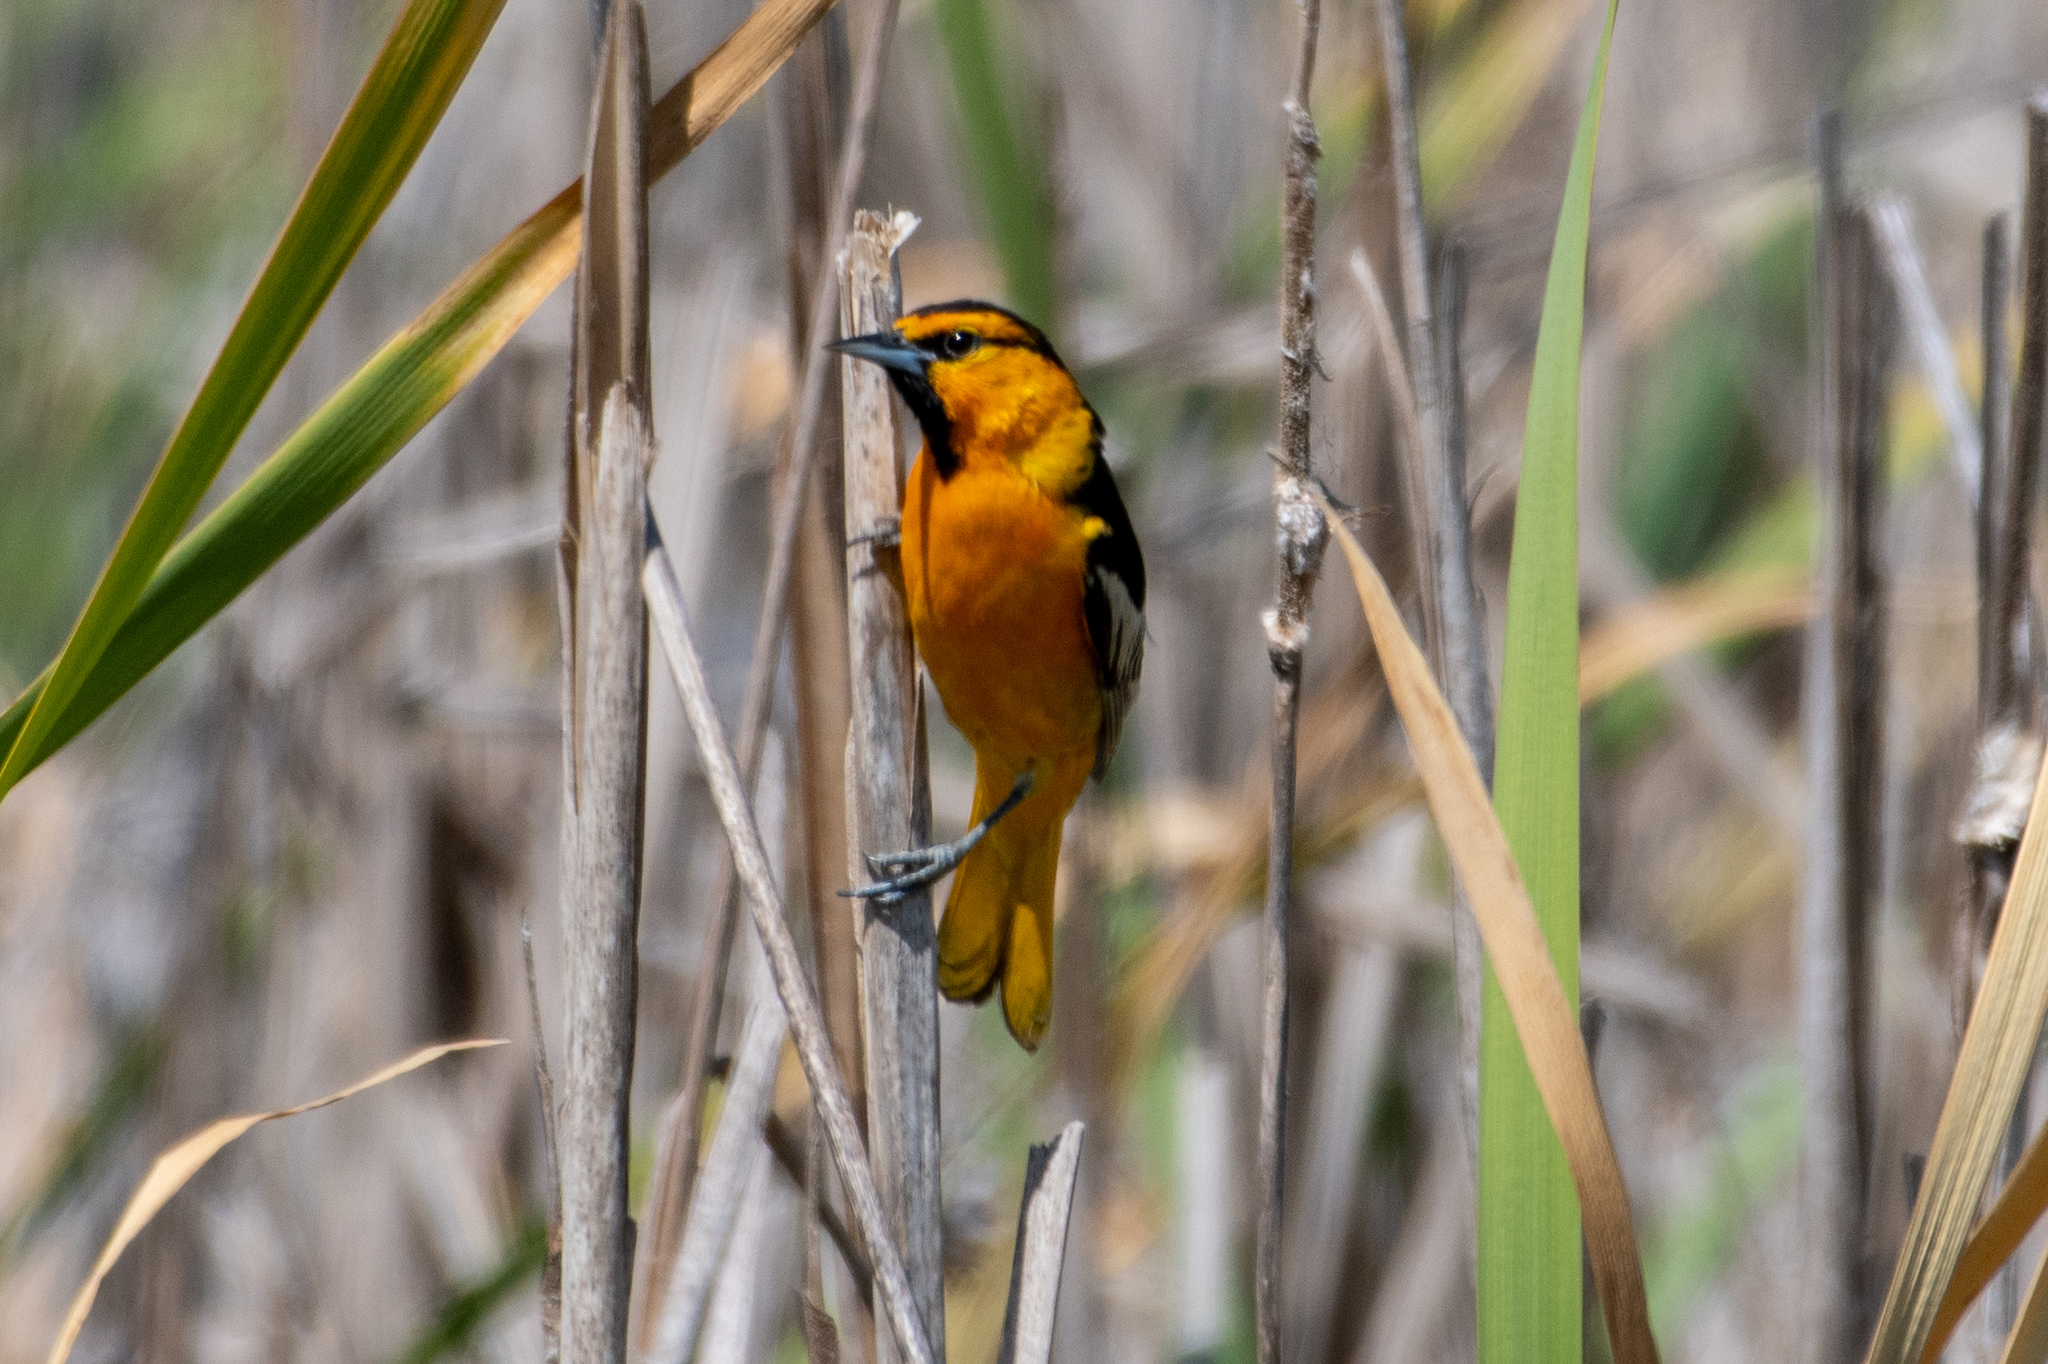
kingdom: Animalia
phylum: Chordata
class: Aves
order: Passeriformes
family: Icteridae
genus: Icterus
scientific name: Icterus bullockii
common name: Bullock's oriole
